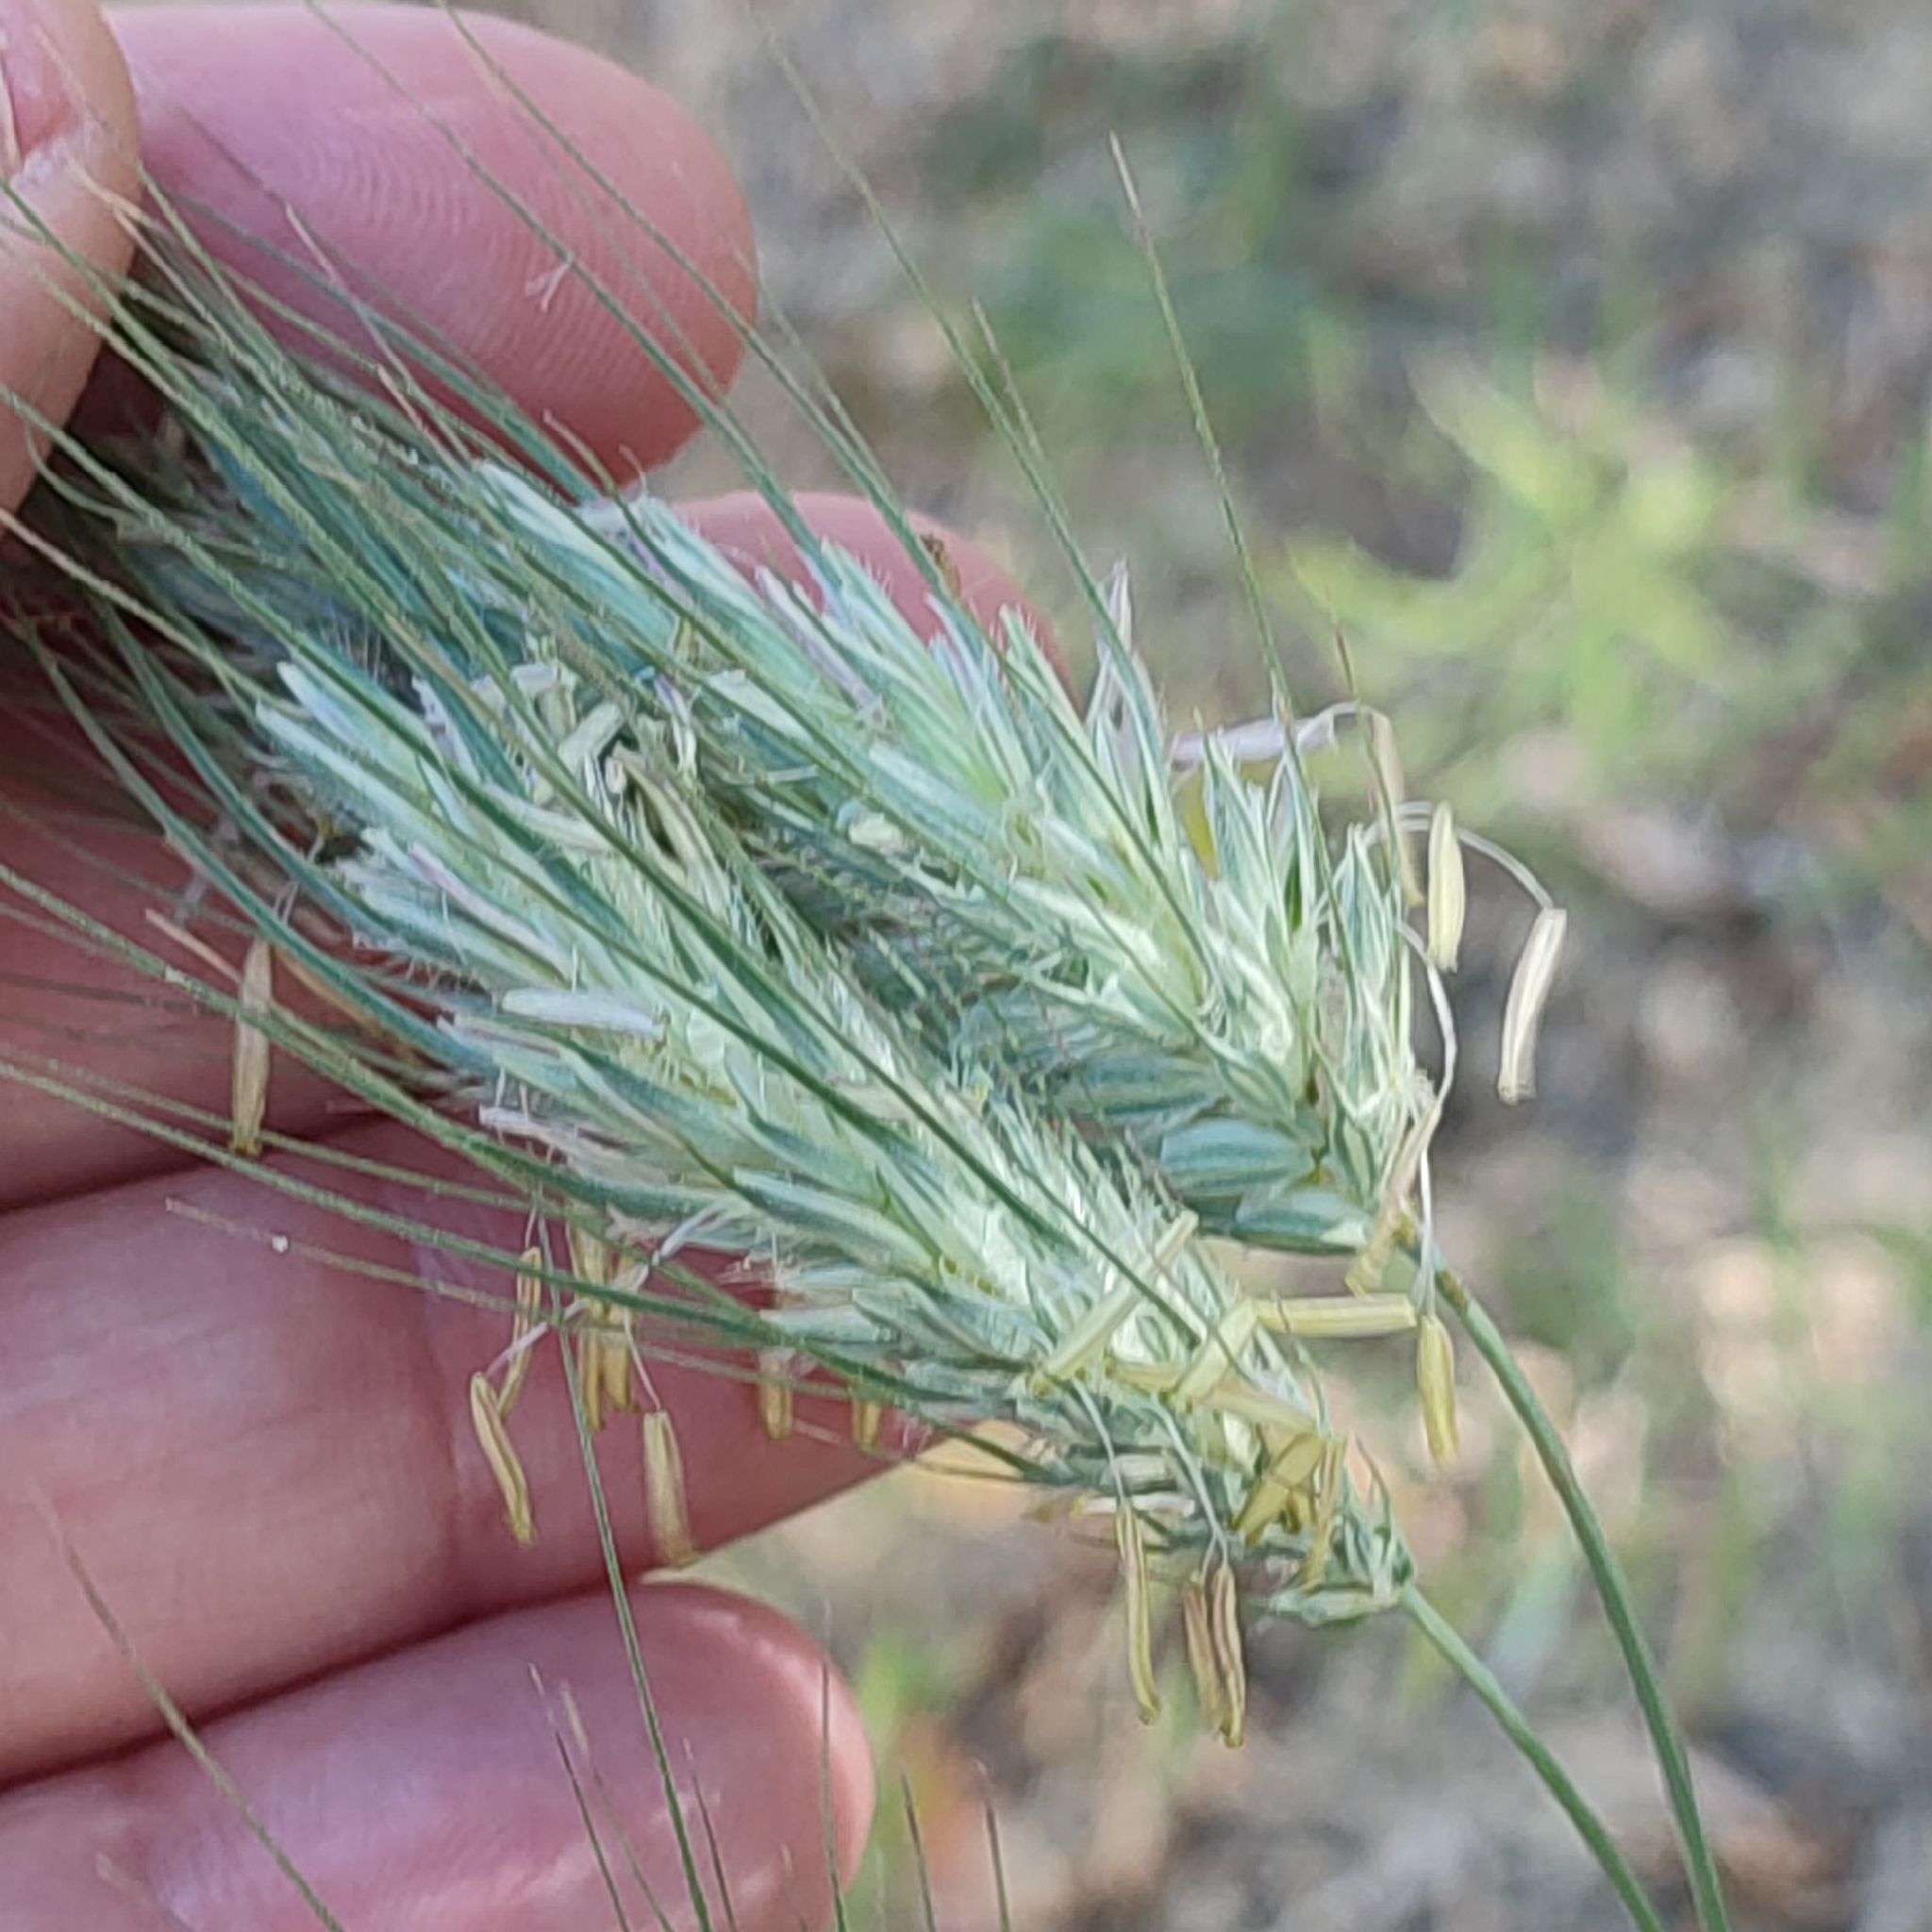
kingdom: Plantae
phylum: Tracheophyta
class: Liliopsida
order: Poales
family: Poaceae
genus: Dasypyrum
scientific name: Dasypyrum villosum
